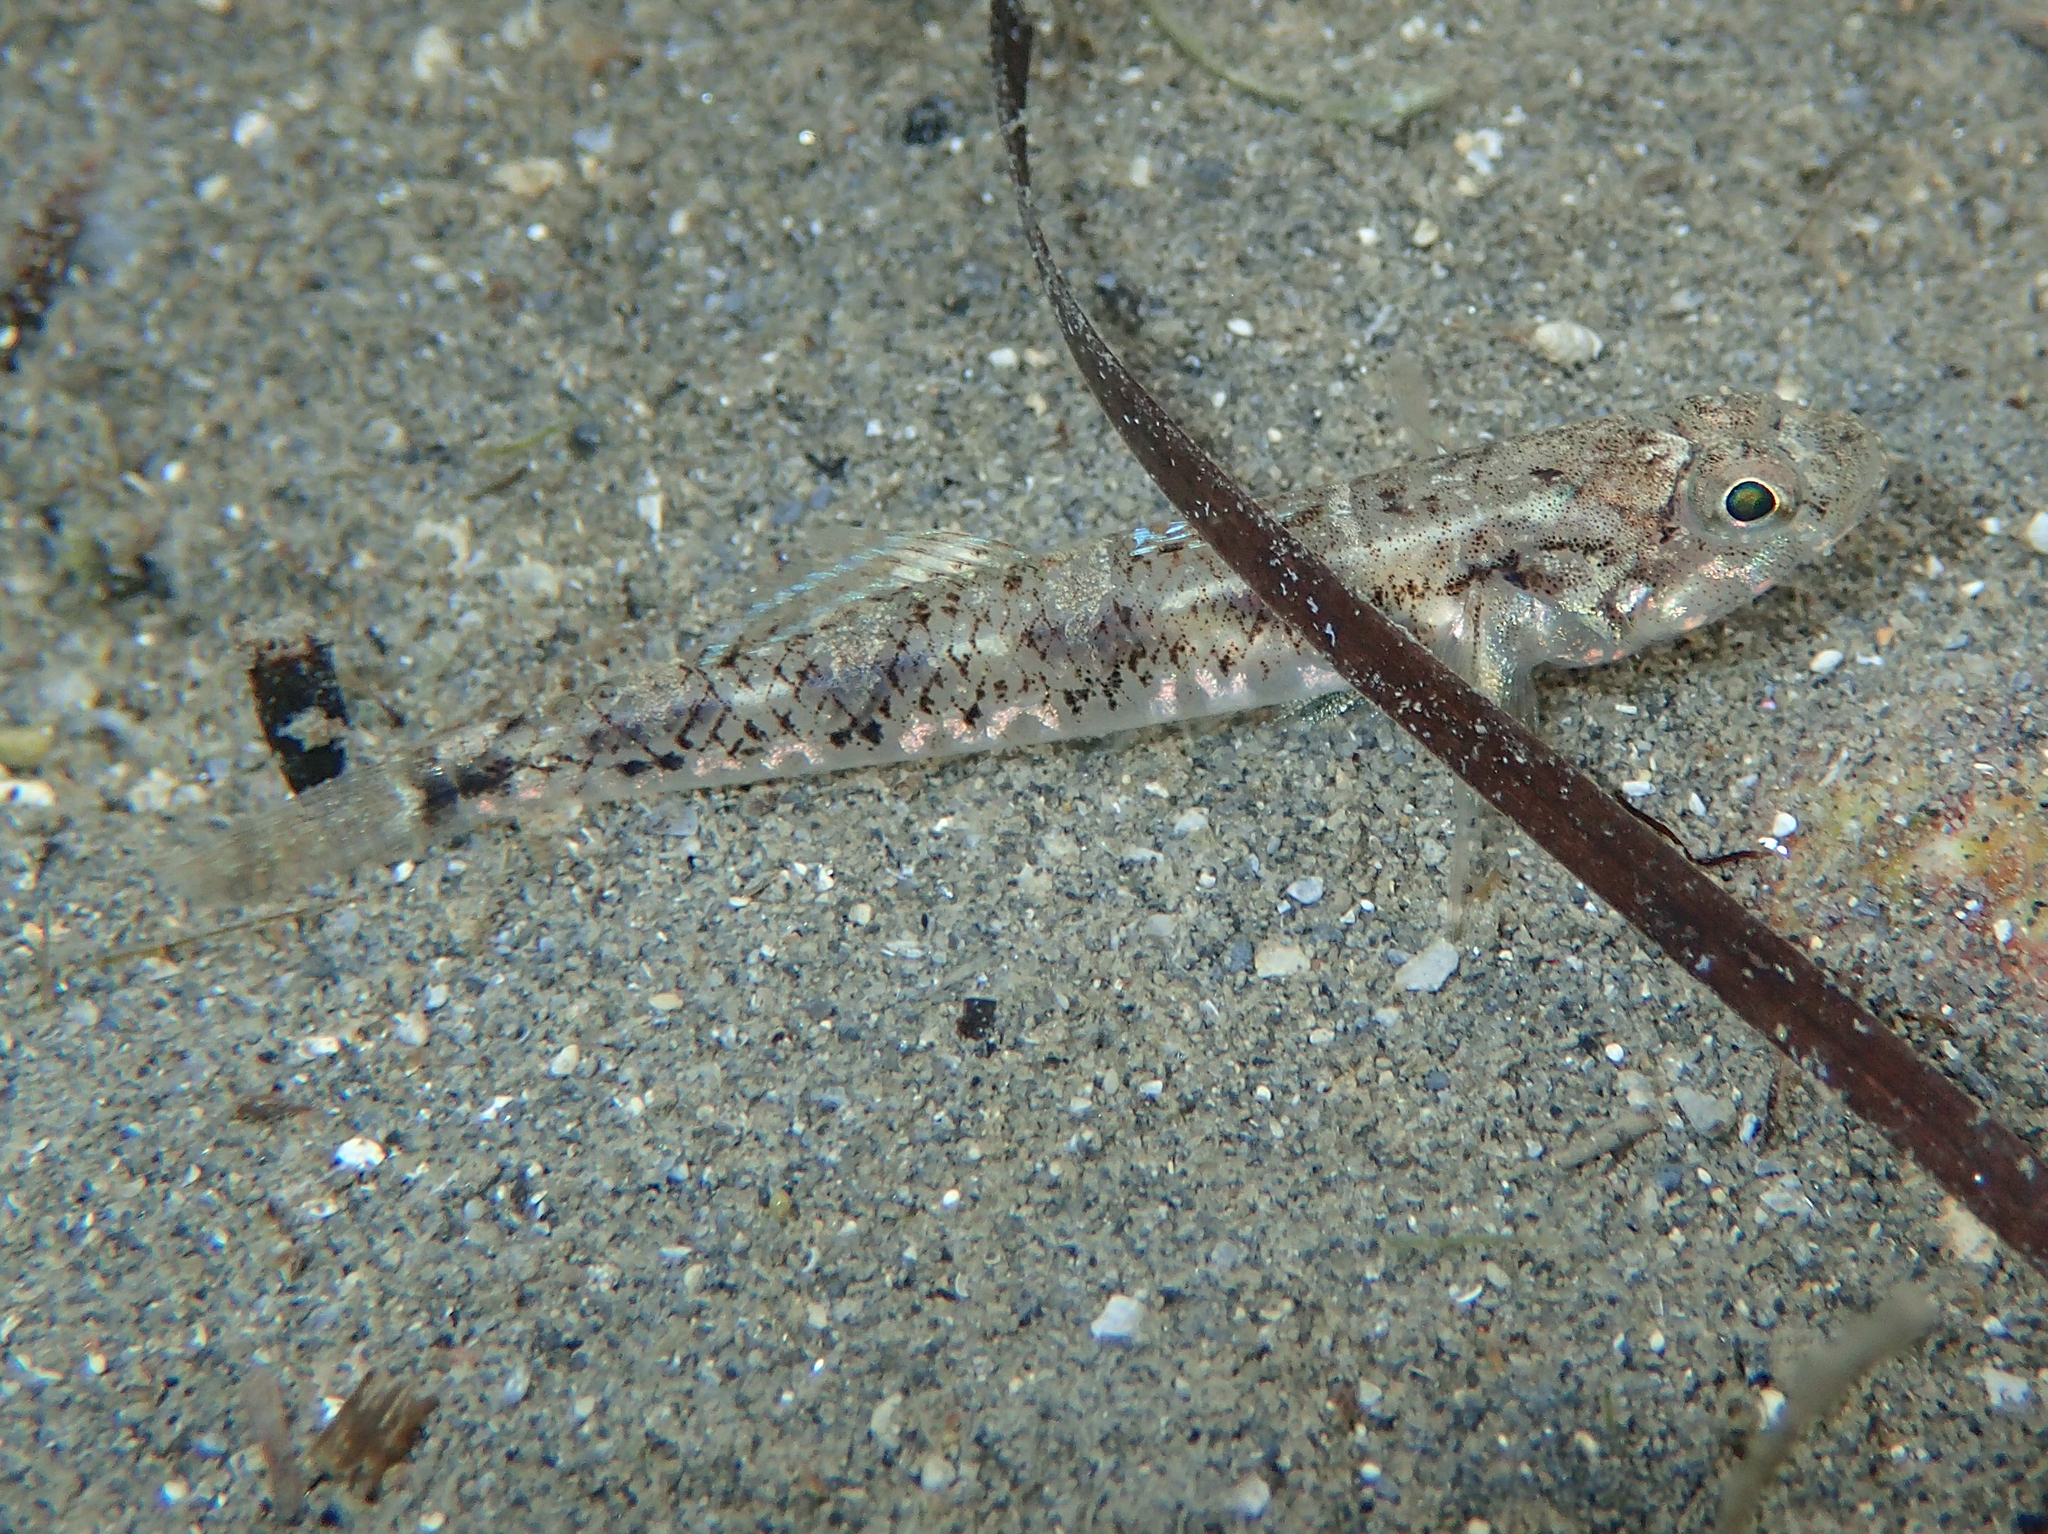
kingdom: Animalia
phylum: Chordata
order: Perciformes
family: Gobiidae
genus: Pomatoschistus
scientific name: Pomatoschistus pictus
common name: Painted goby
